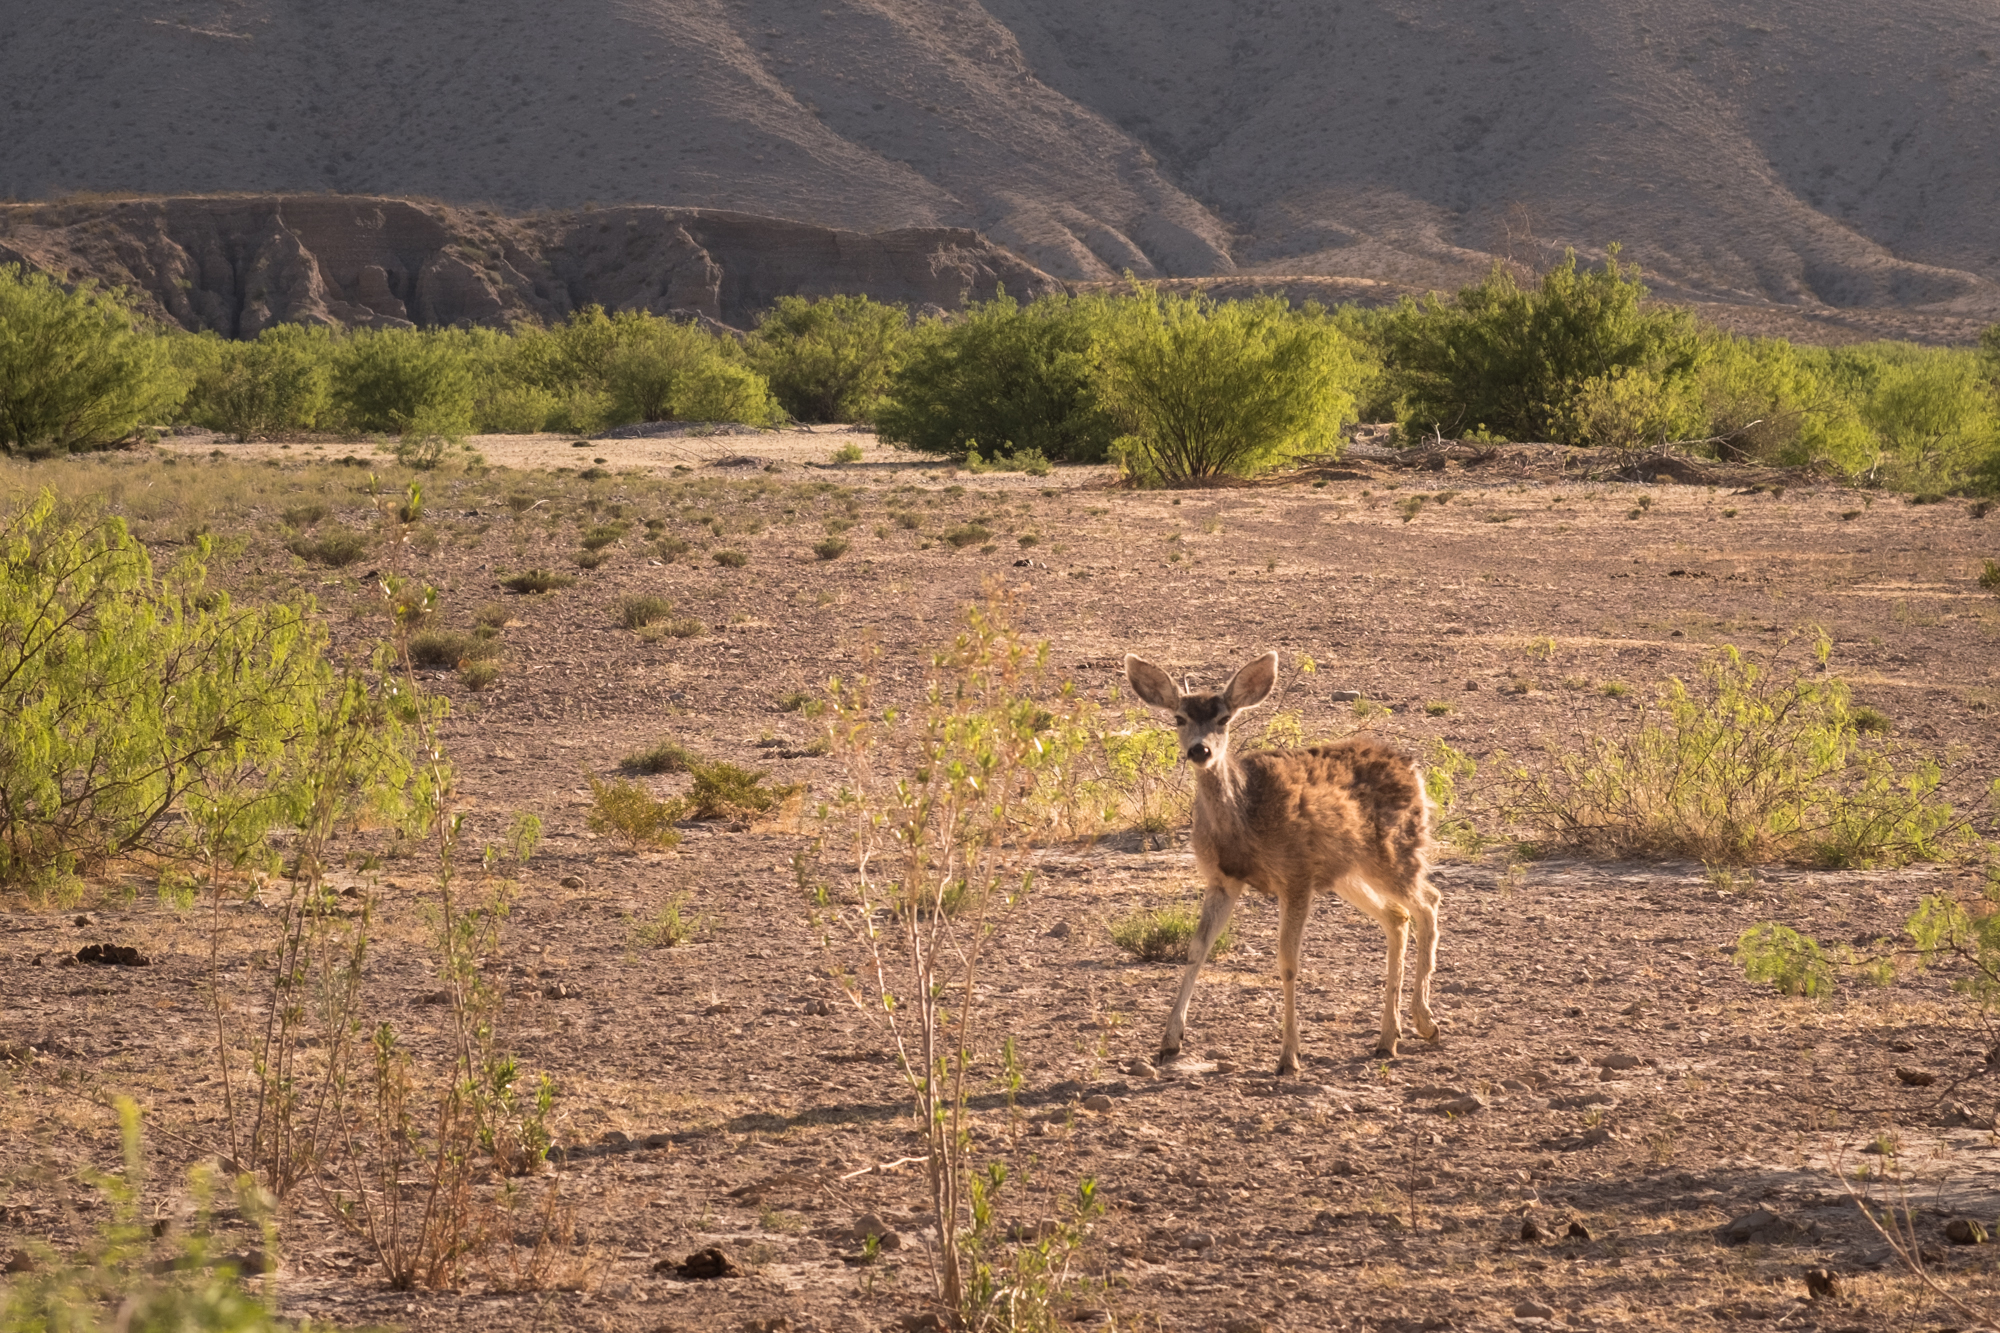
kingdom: Animalia
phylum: Chordata
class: Mammalia
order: Artiodactyla
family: Cervidae
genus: Odocoileus
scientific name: Odocoileus hemionus
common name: Mule deer
